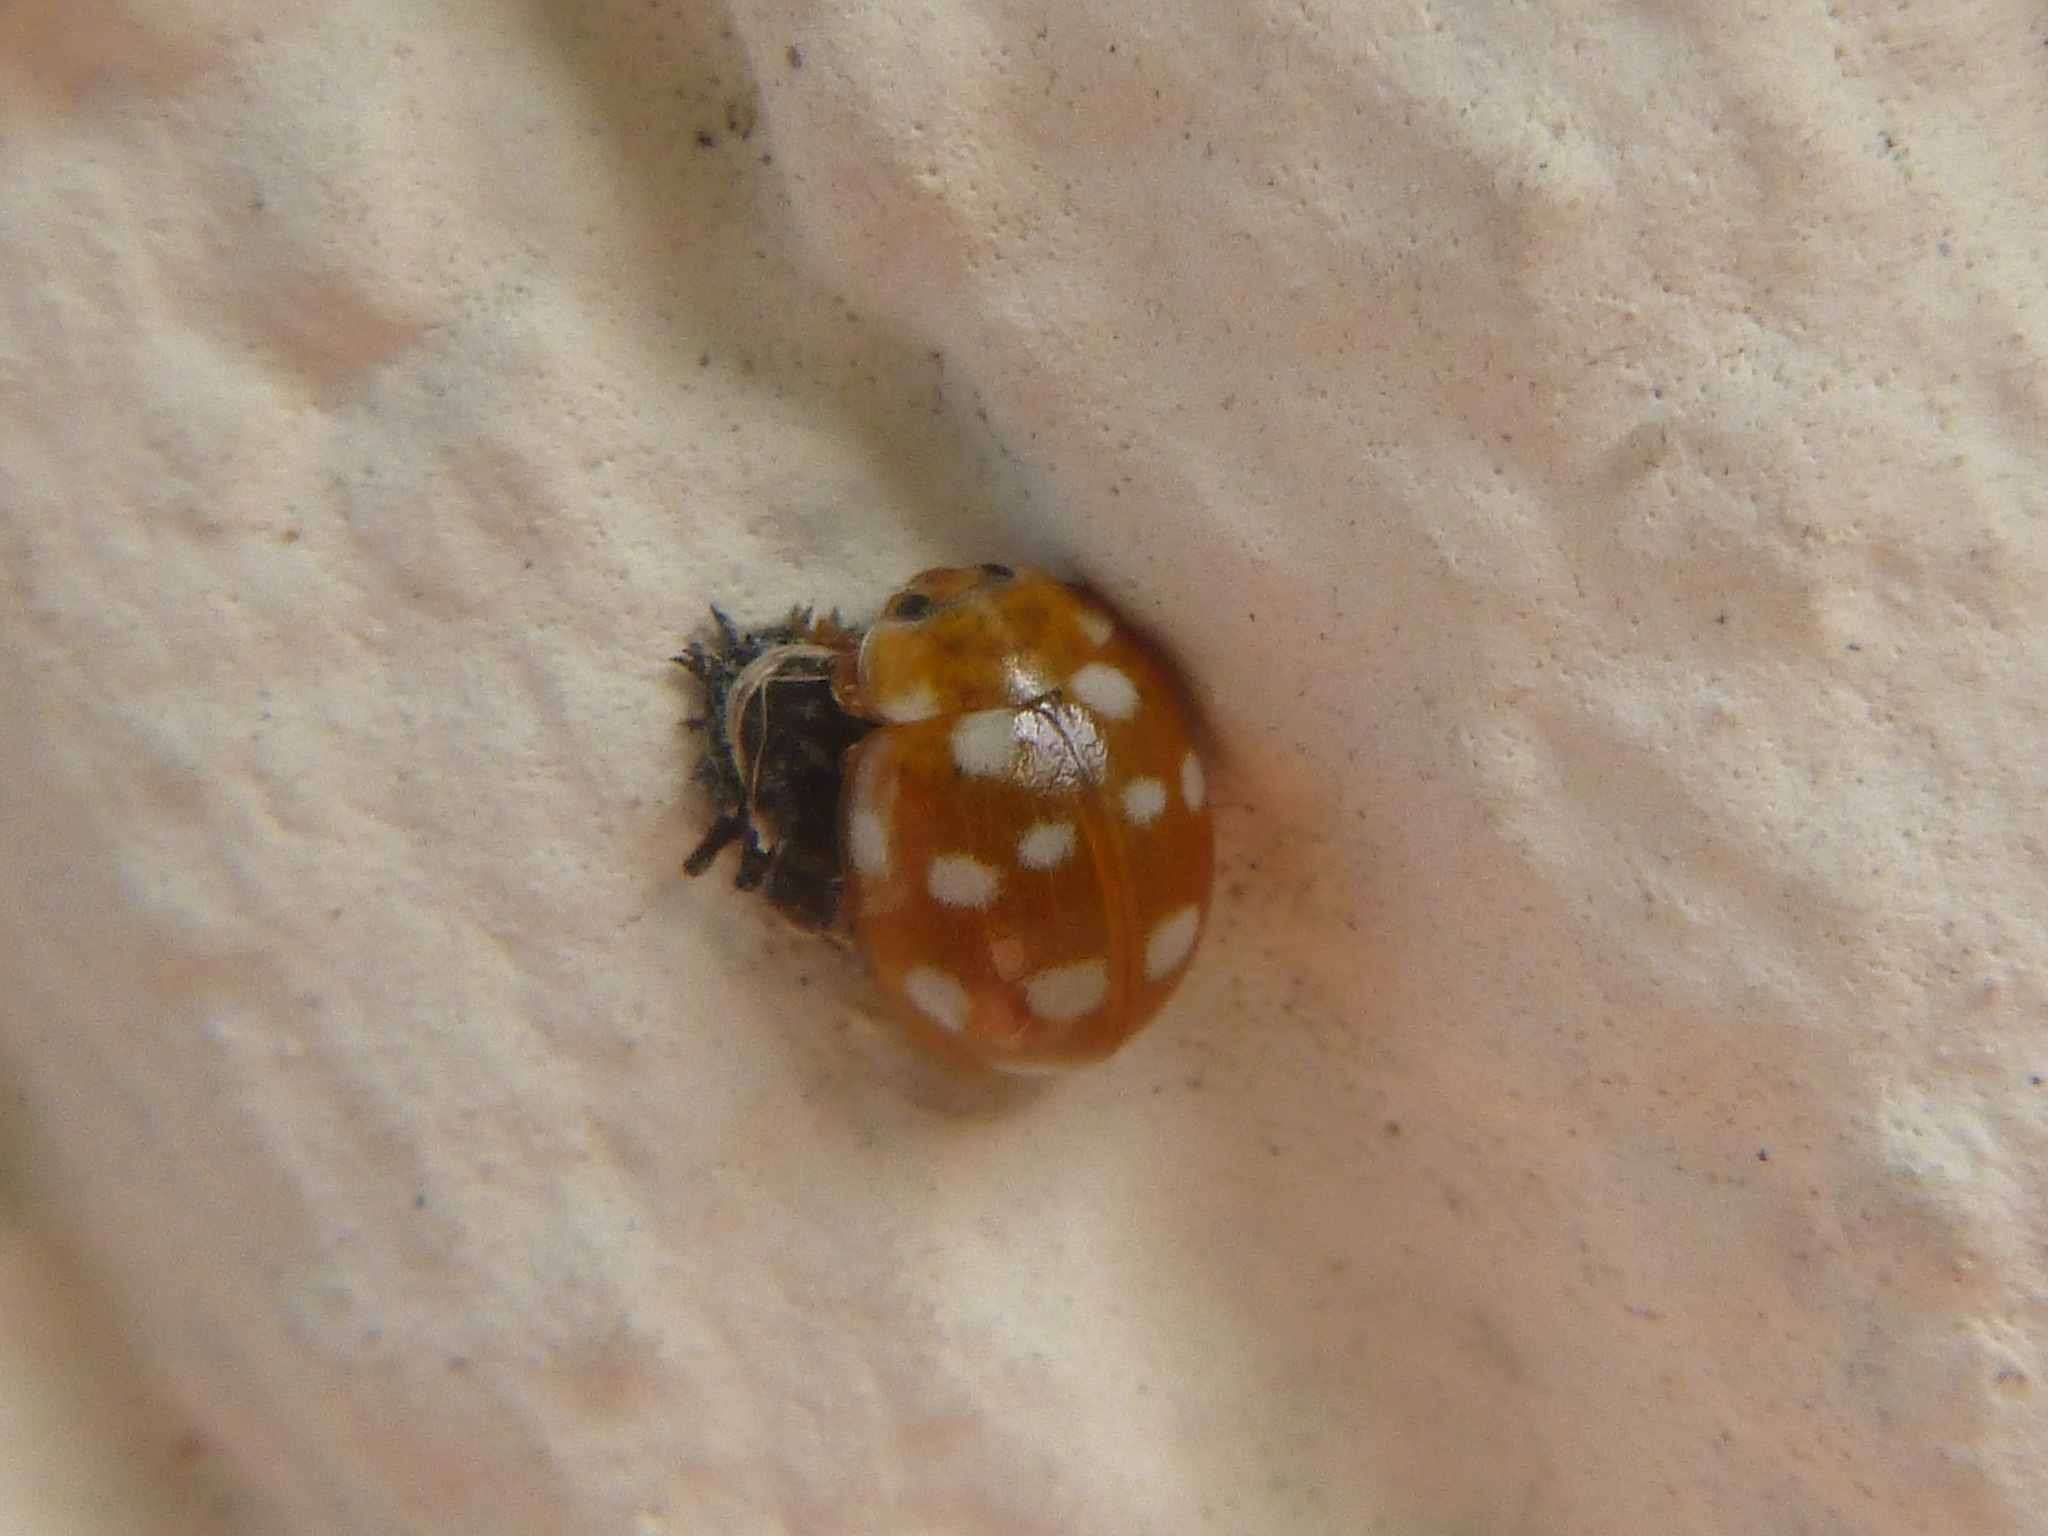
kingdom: Animalia
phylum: Arthropoda
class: Insecta
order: Coleoptera
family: Coccinellidae
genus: Calvia
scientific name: Calvia quatuordecimguttata
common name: Cream-spot ladybird
